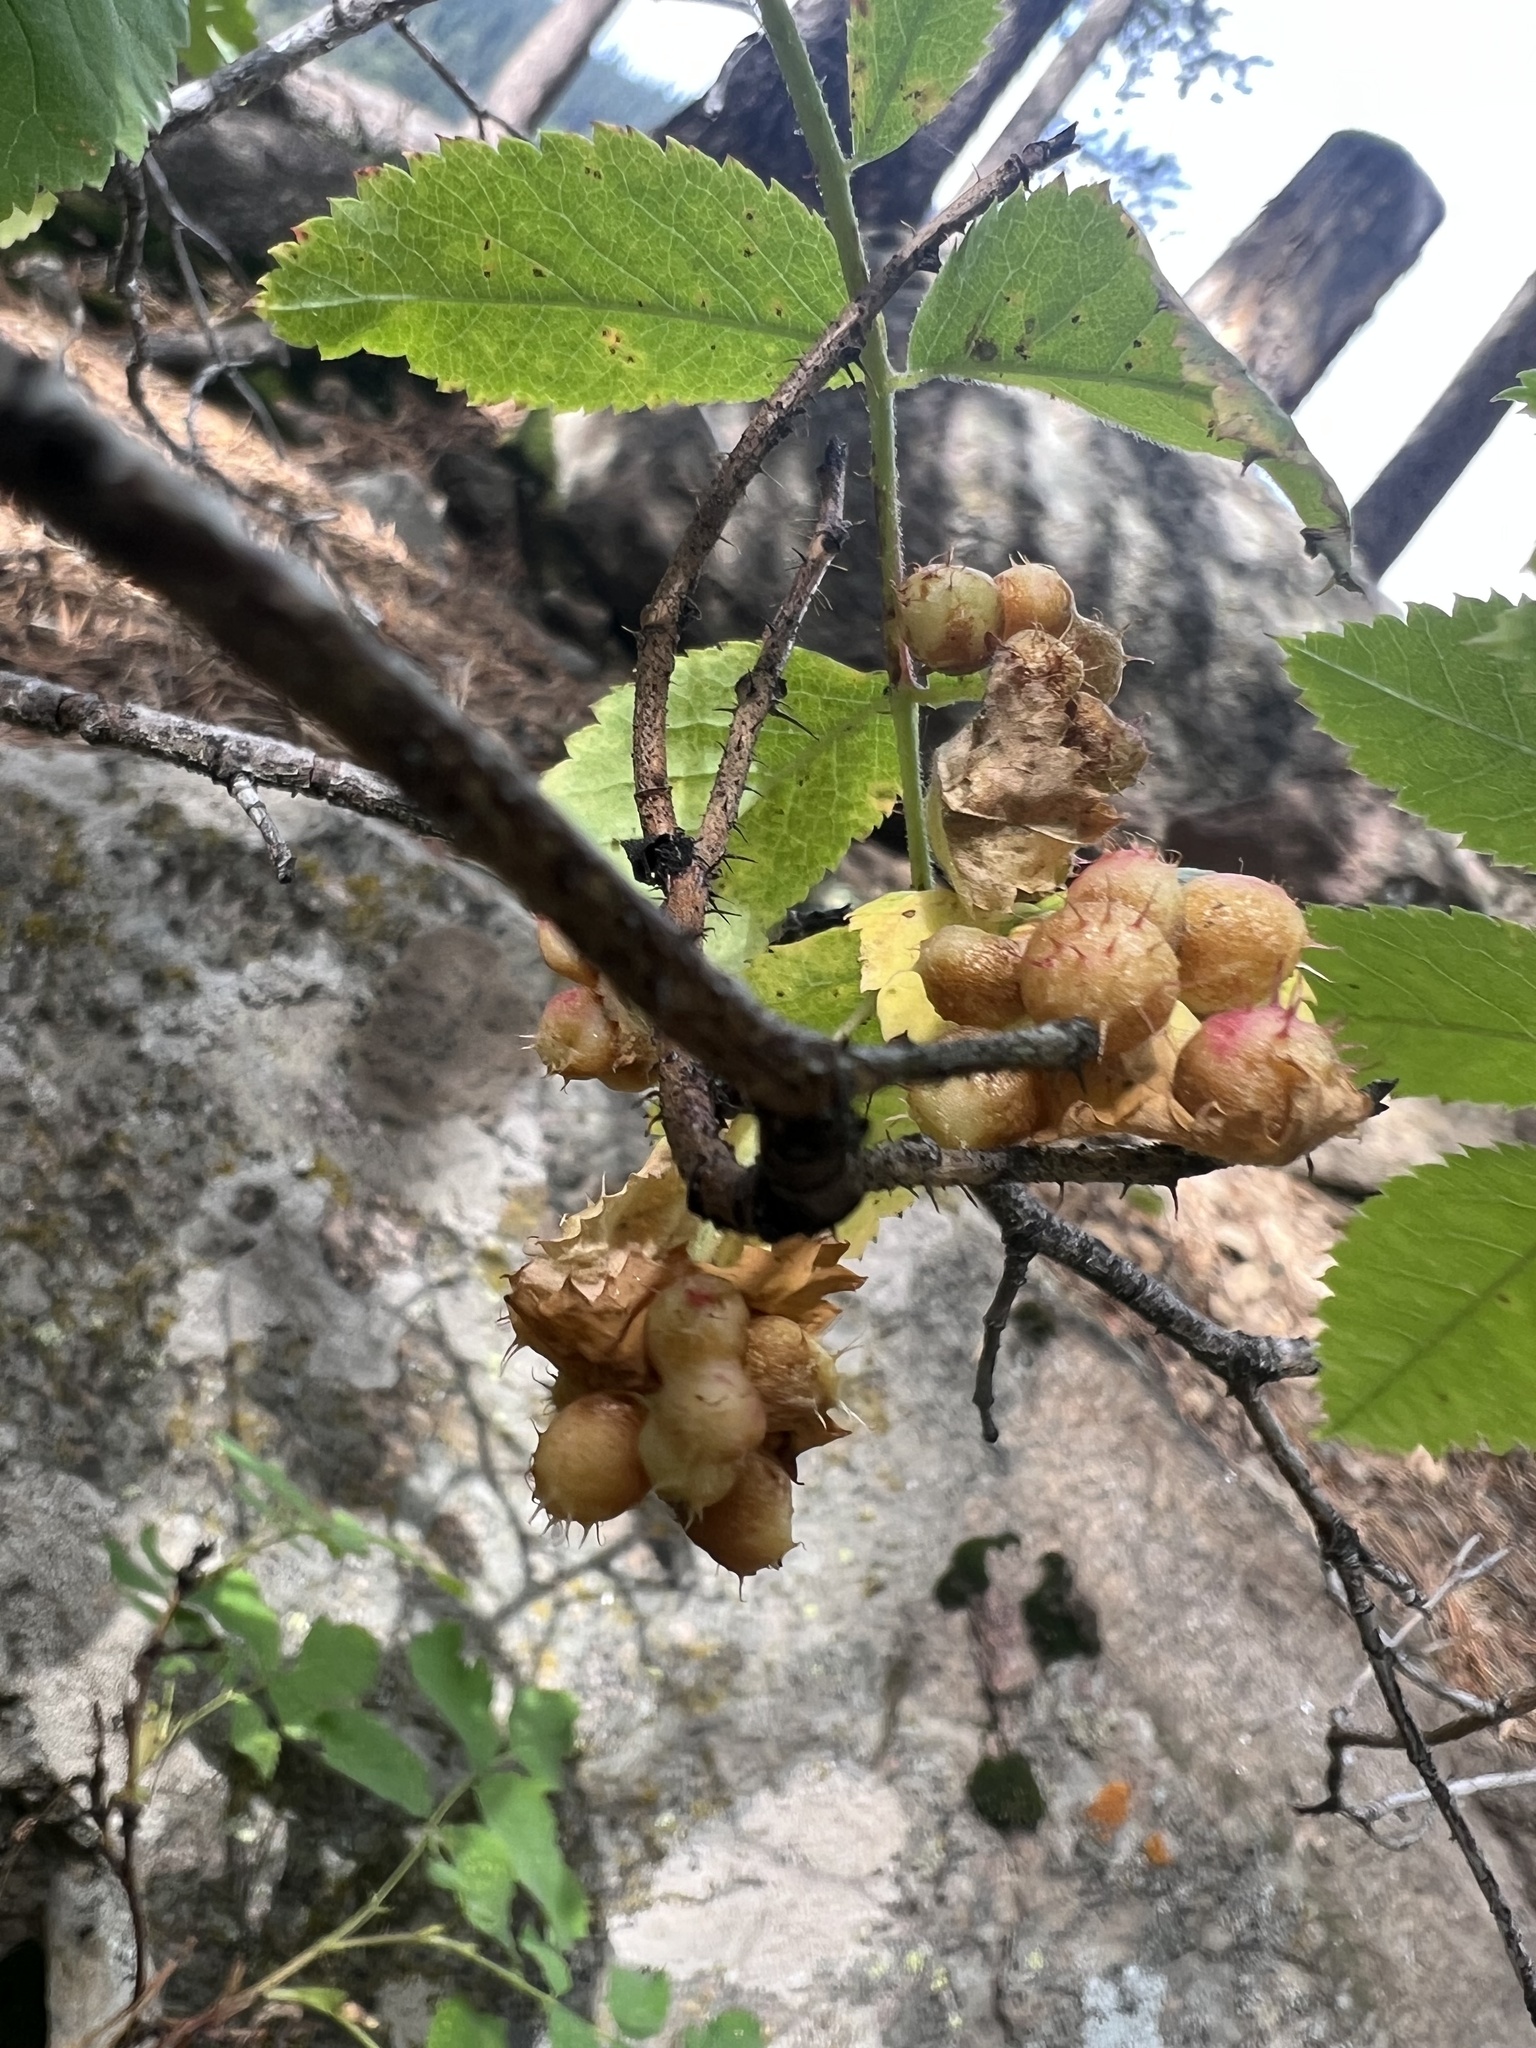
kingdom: Animalia
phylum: Arthropoda
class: Insecta
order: Hymenoptera
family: Cynipidae
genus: Diplolepis
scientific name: Diplolepis polita
